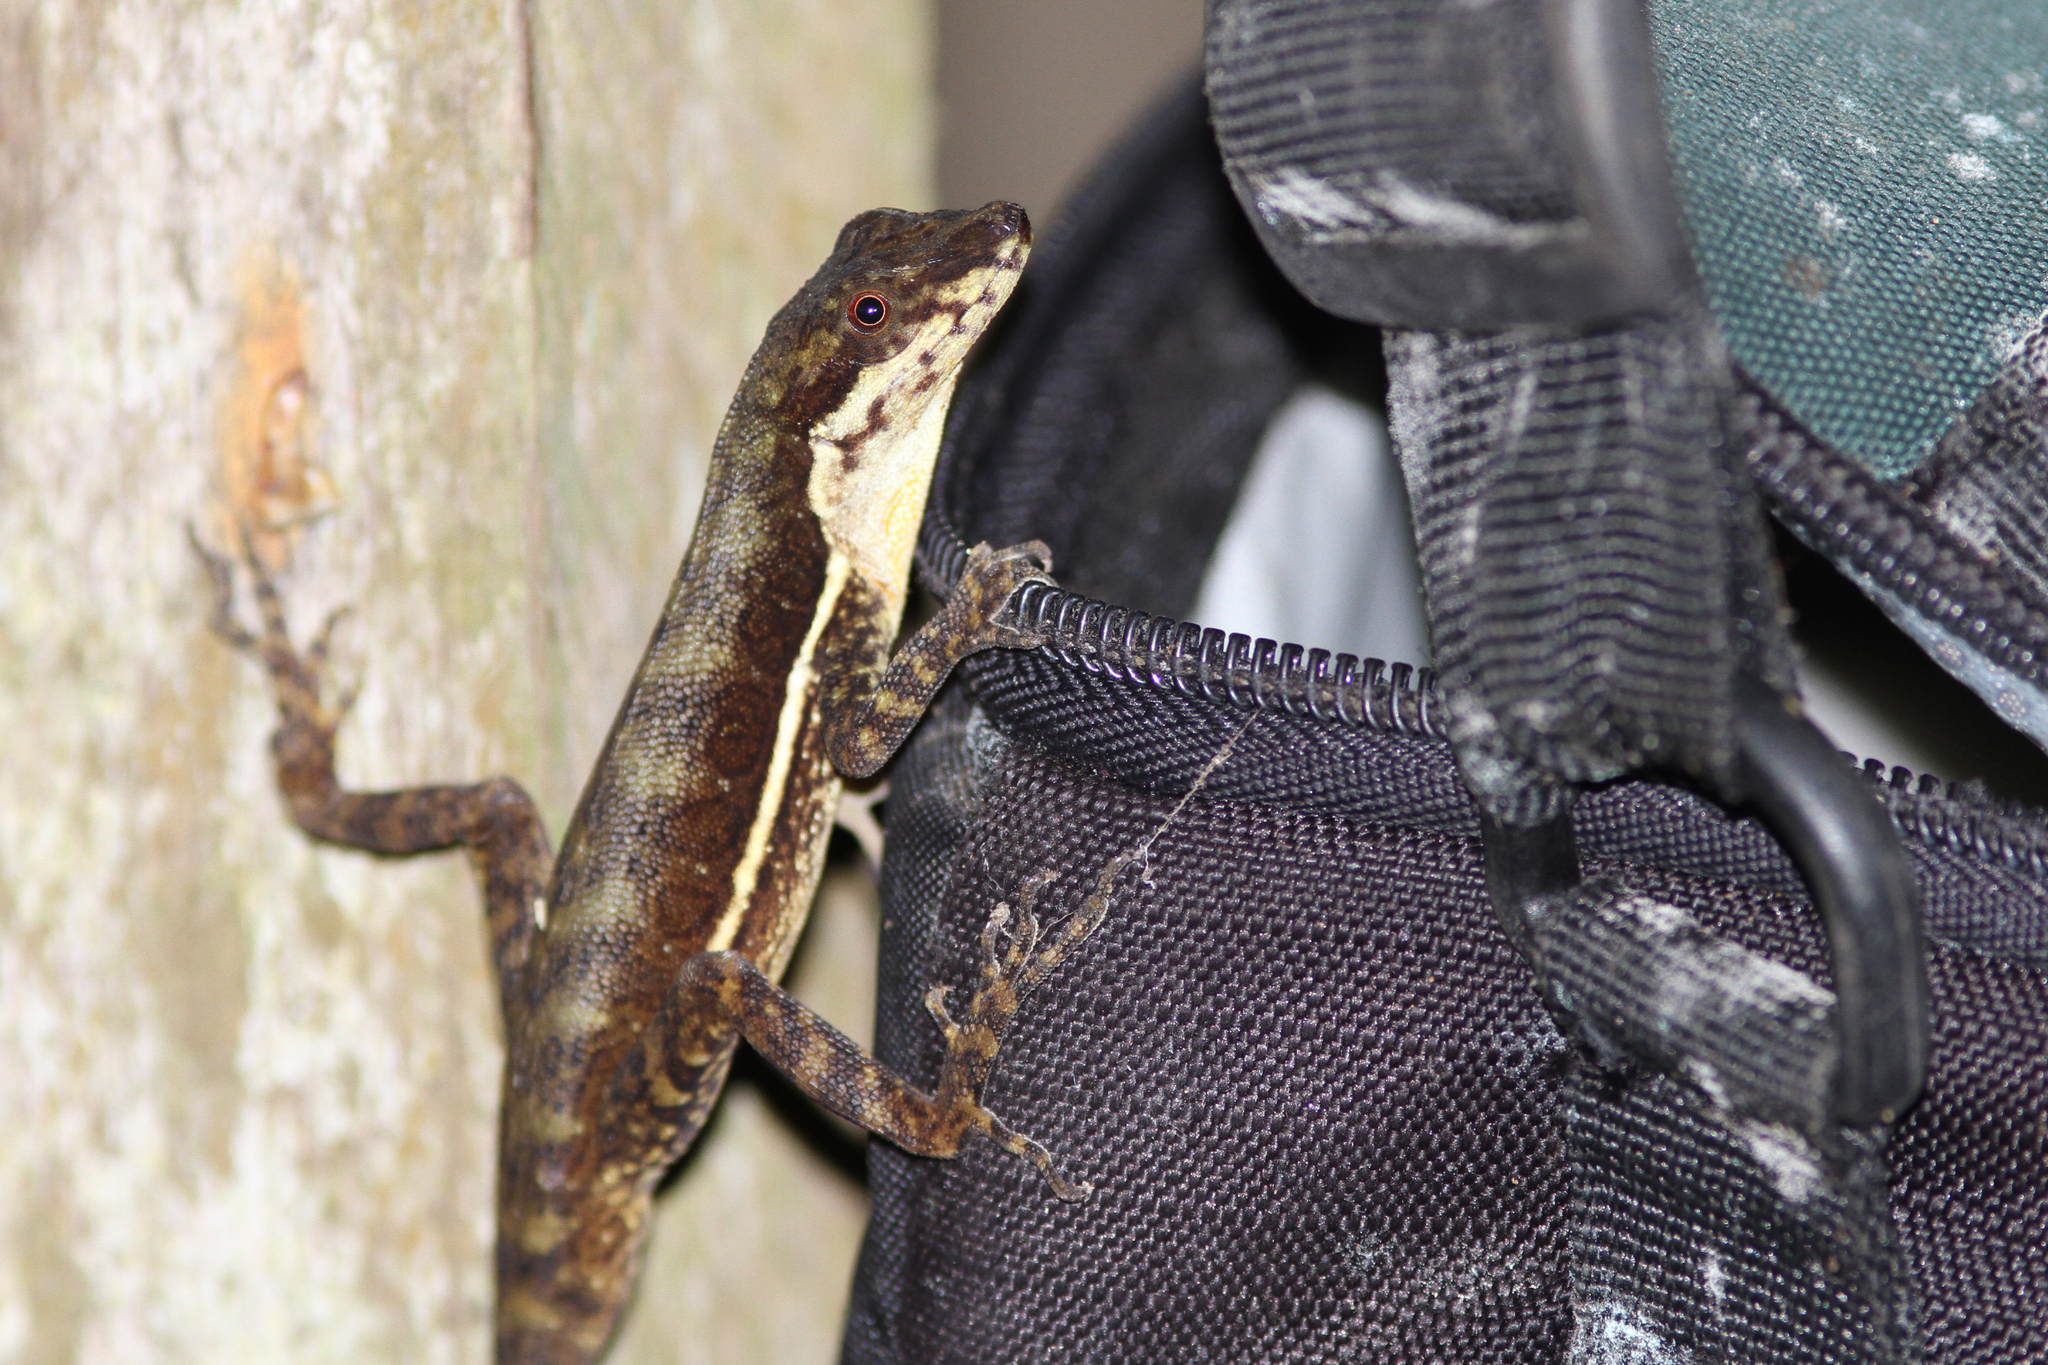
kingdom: Animalia
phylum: Chordata
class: Squamata
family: Dactyloidae
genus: Anolis
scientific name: Anolis oxylophus
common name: Stream anole
